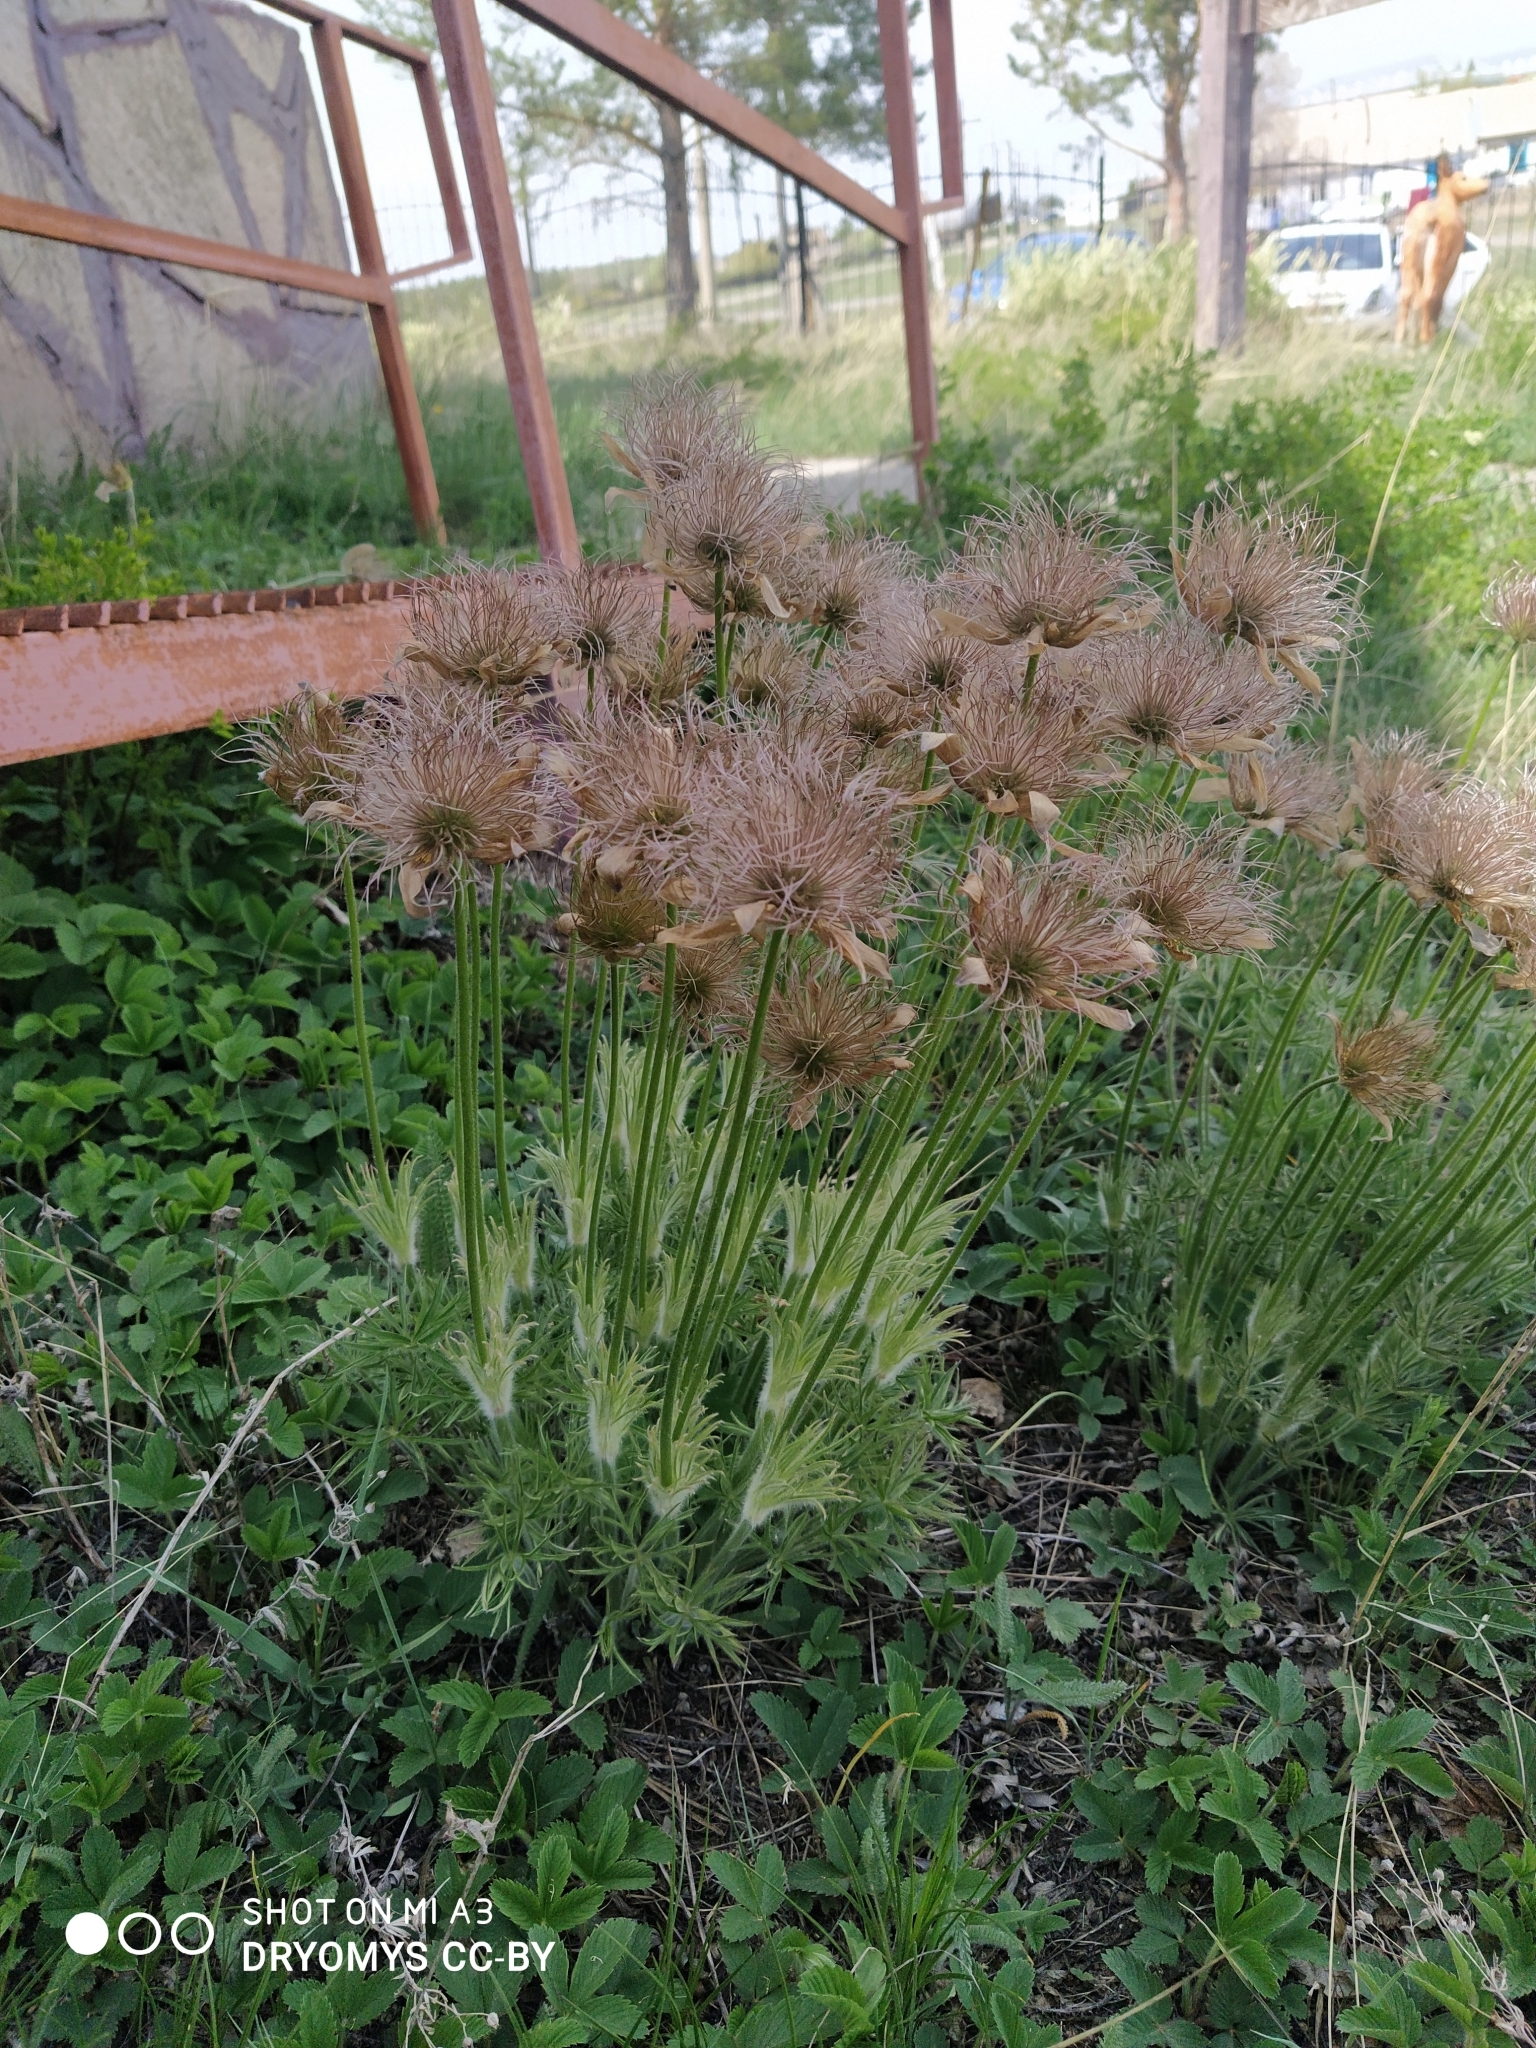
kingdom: Plantae
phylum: Tracheophyta
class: Magnoliopsida
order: Ranunculales
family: Ranunculaceae
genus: Pulsatilla
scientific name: Pulsatilla patens
